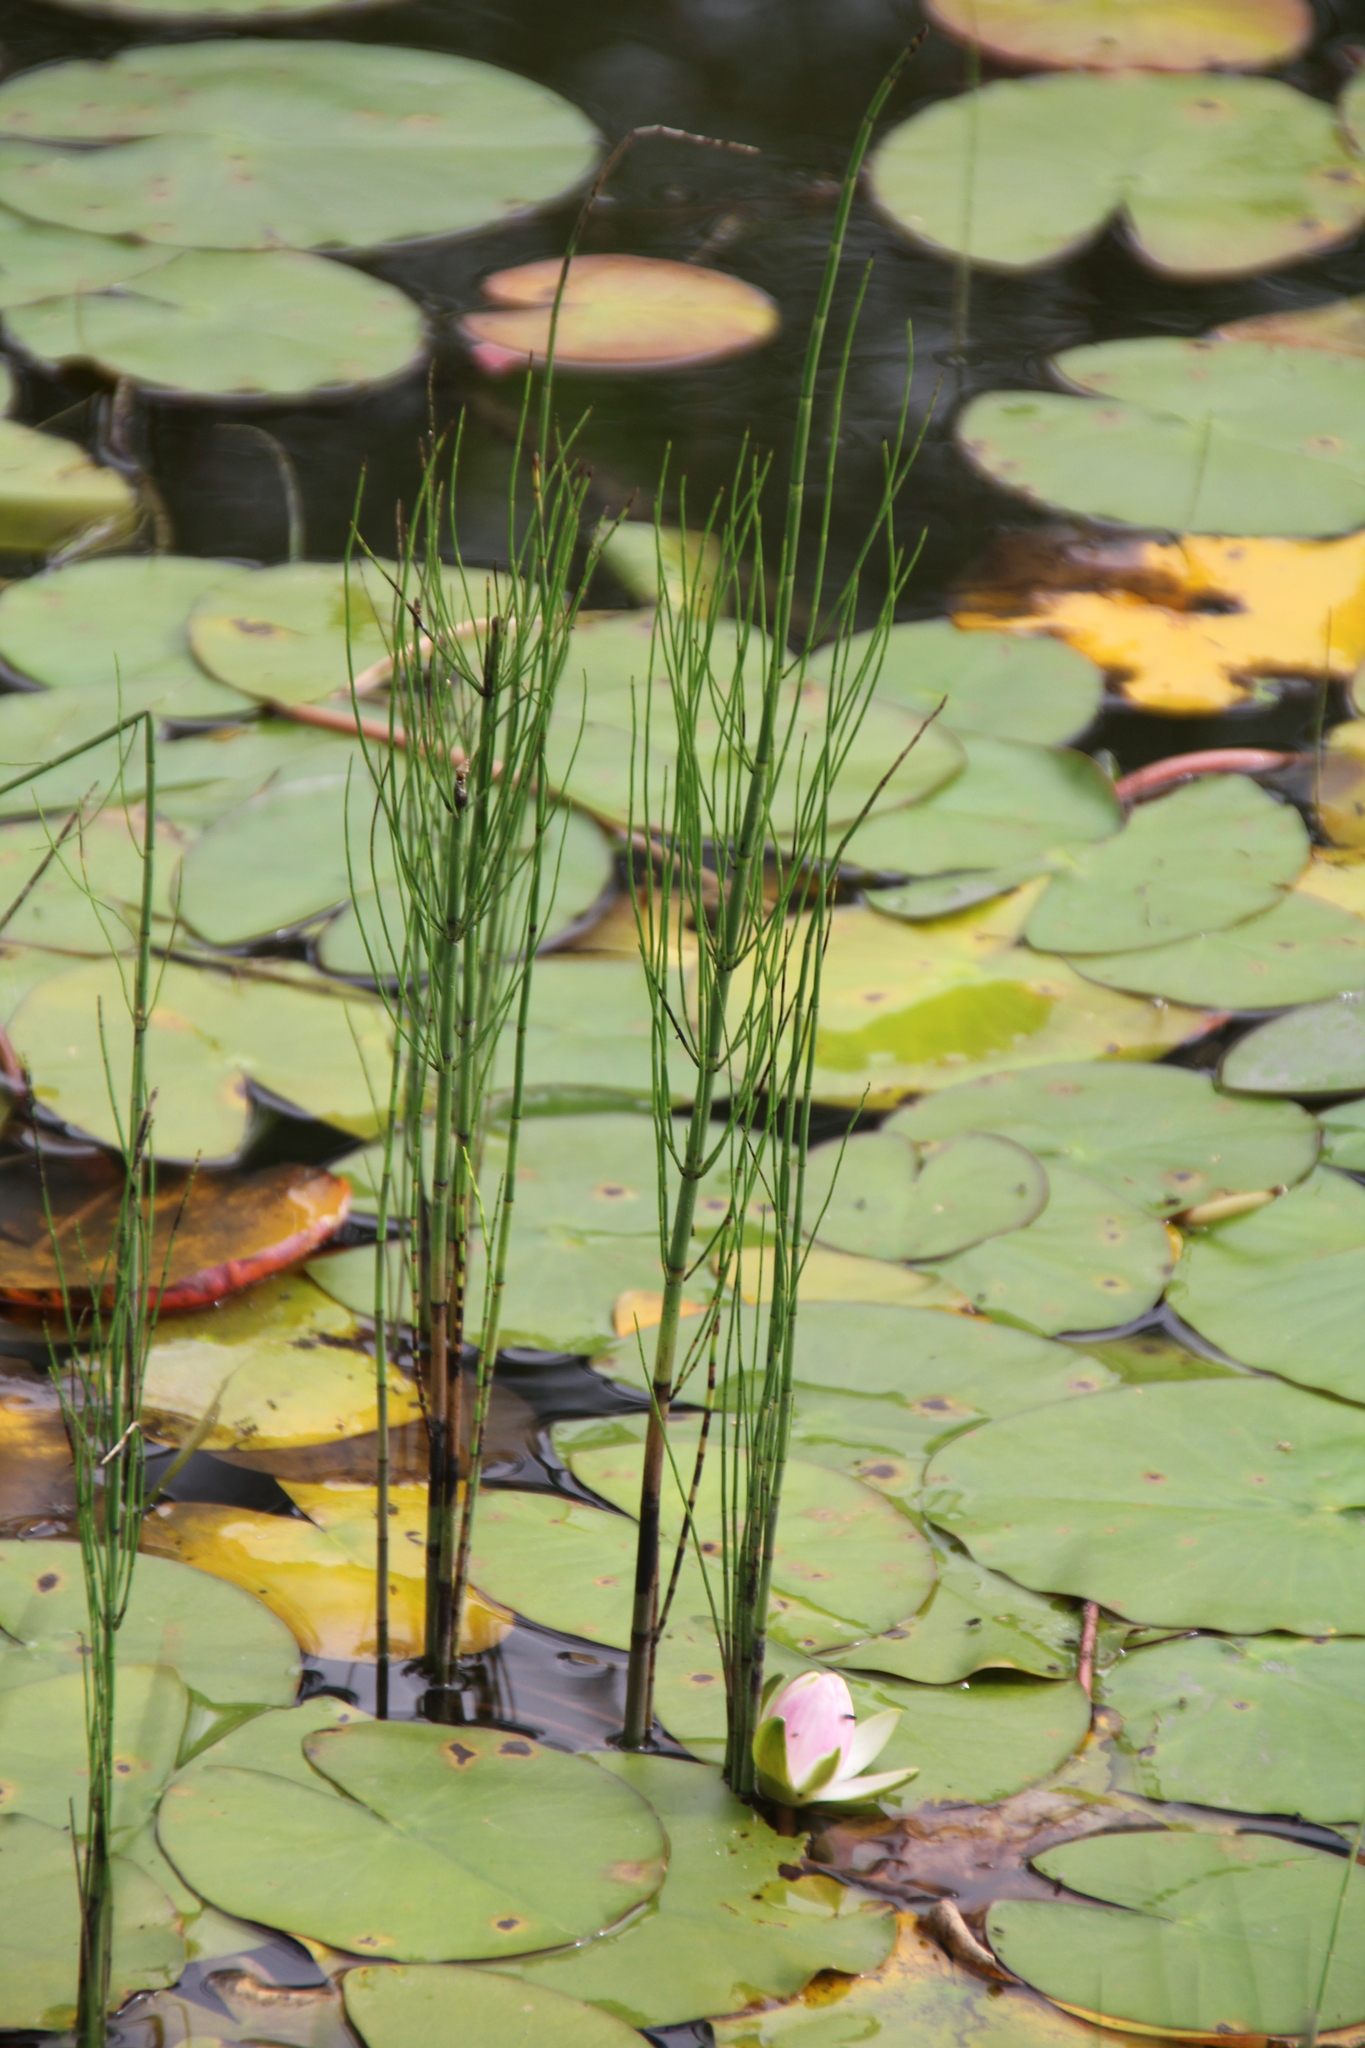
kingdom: Plantae
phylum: Tracheophyta
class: Polypodiopsida
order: Equisetales
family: Equisetaceae
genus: Equisetum
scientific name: Equisetum fluviatile
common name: Water horsetail
